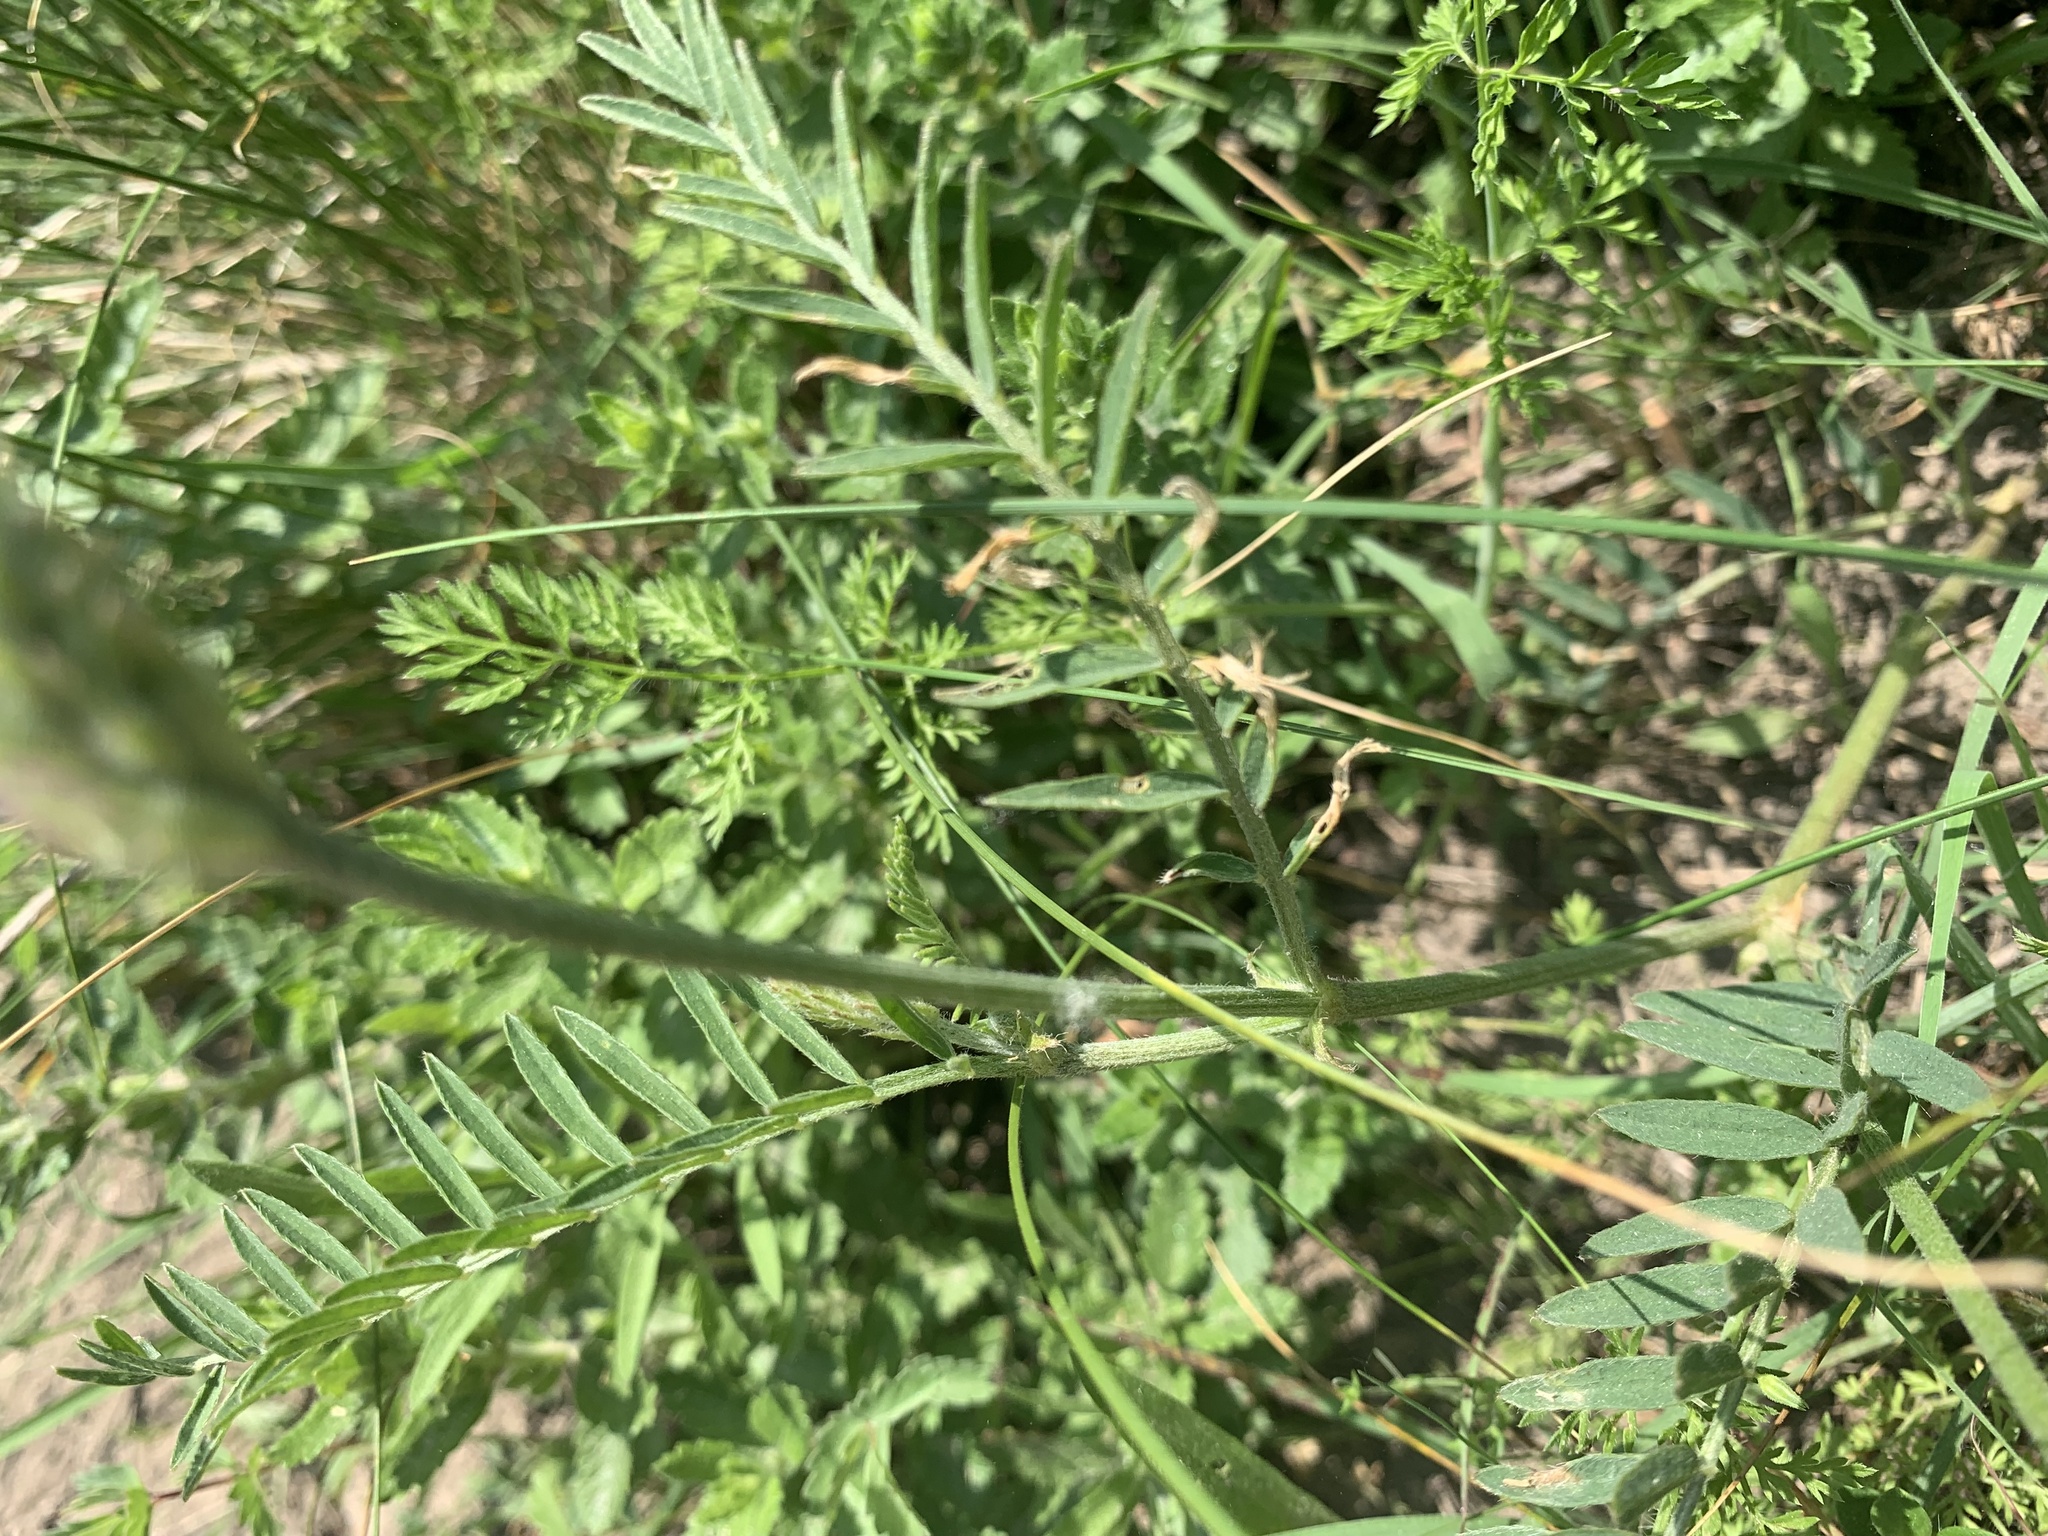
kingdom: Plantae
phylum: Tracheophyta
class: Magnoliopsida
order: Fabales
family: Fabaceae
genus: Astragalus
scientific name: Astragalus onobrychis
